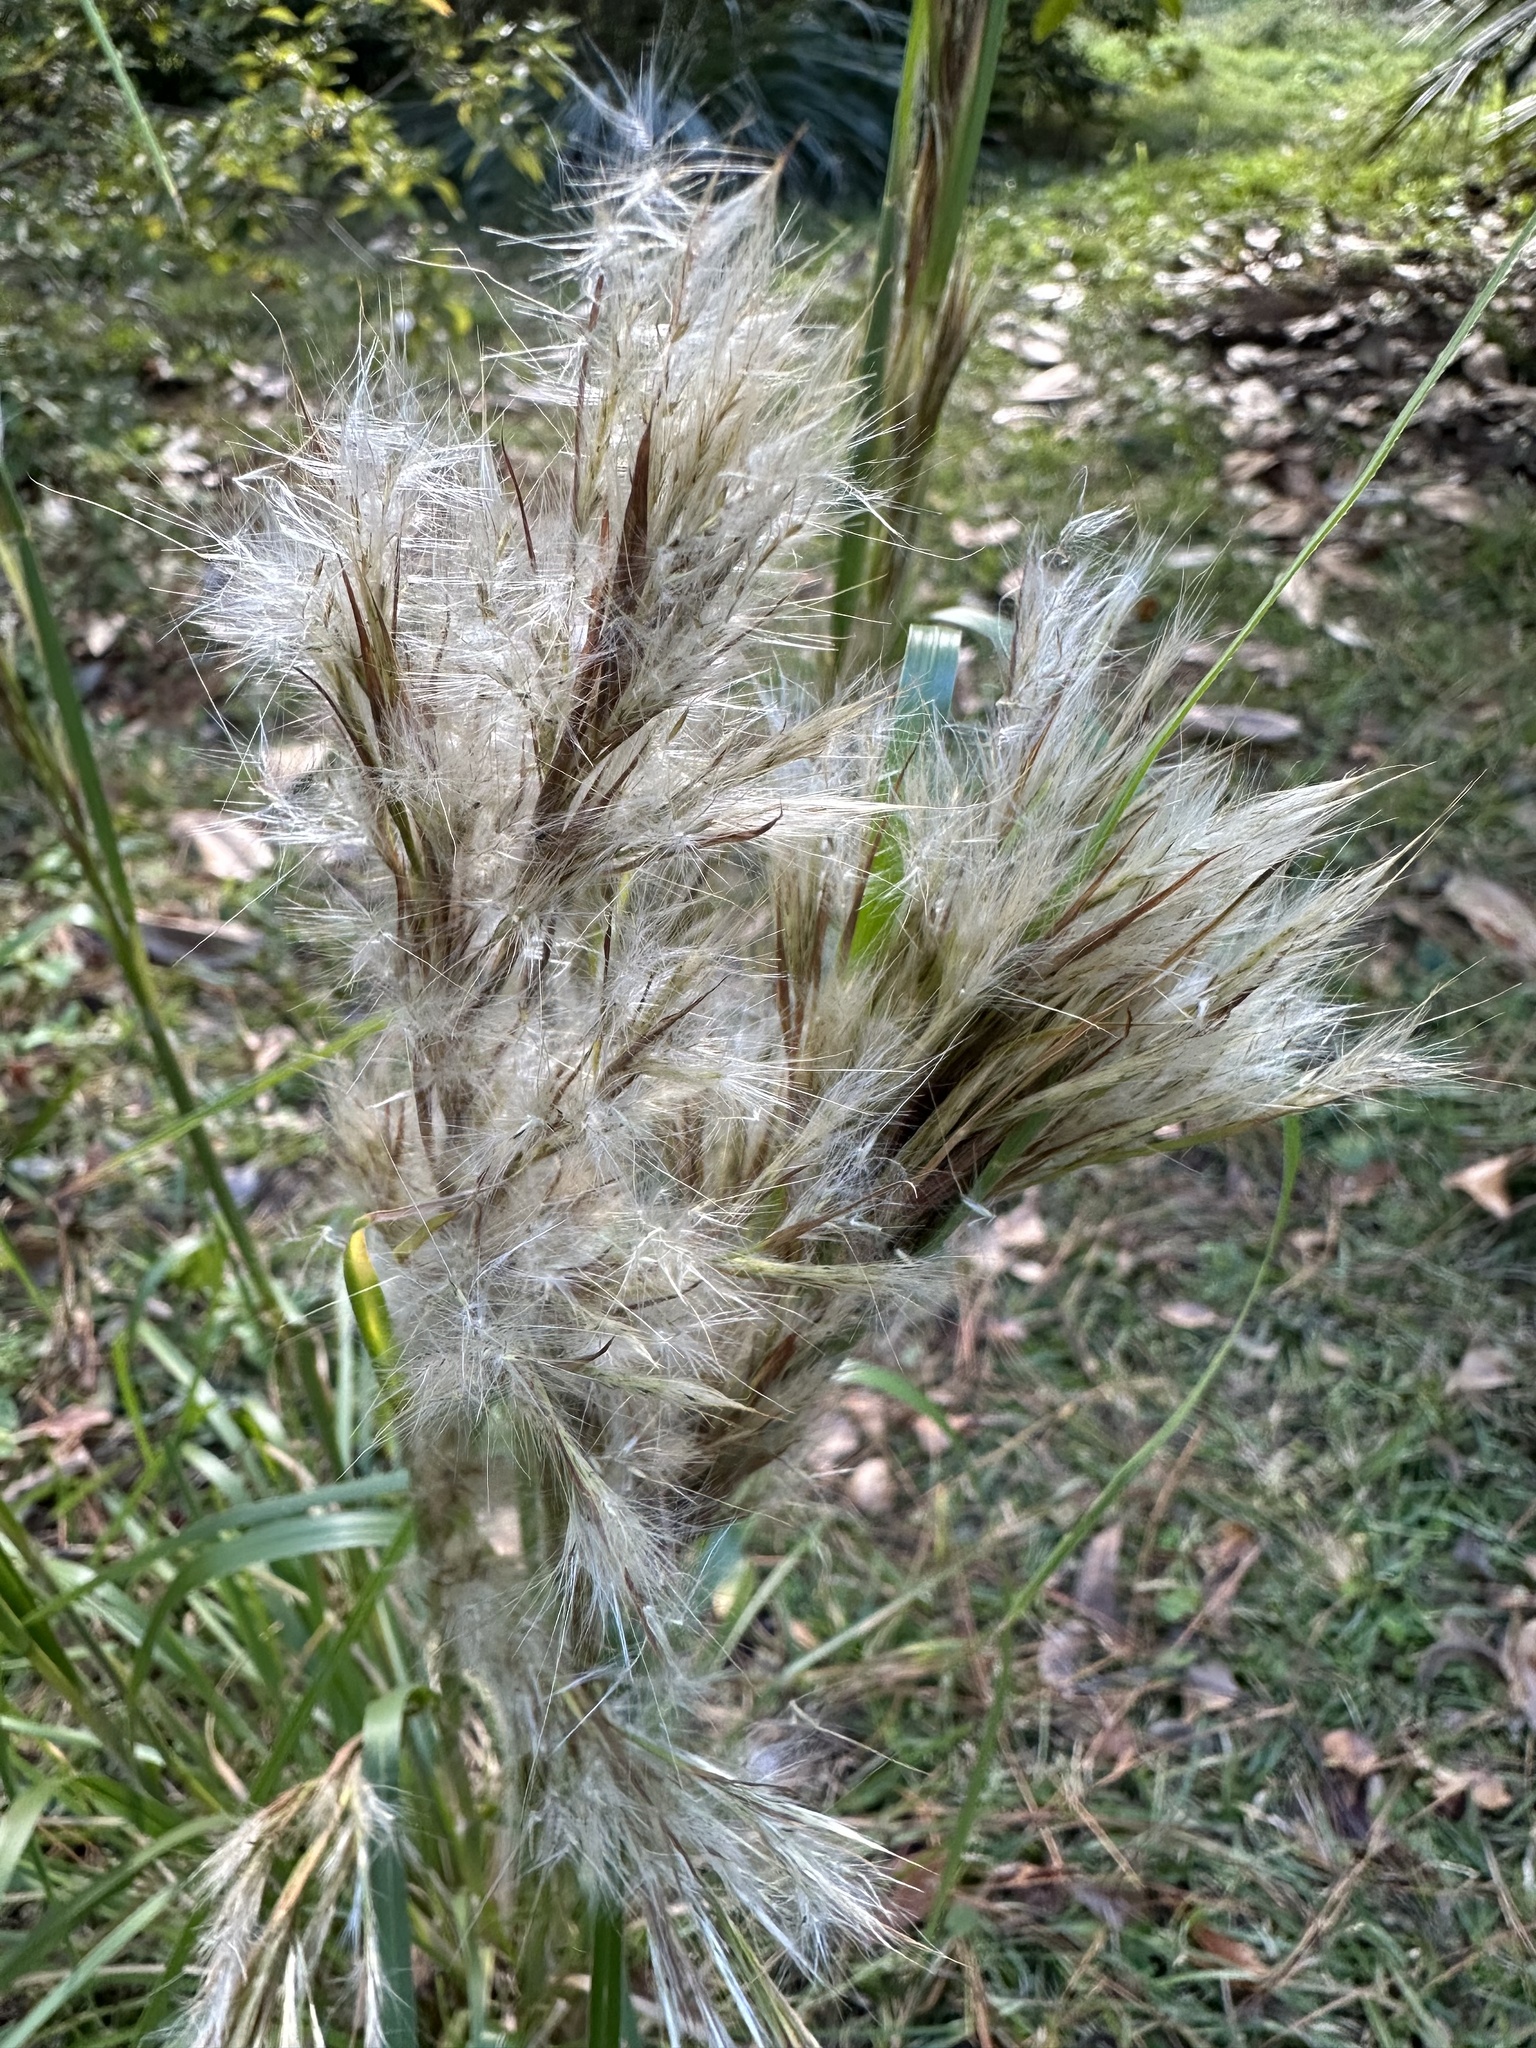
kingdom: Plantae
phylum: Tracheophyta
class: Liliopsida
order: Poales
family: Poaceae
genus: Andropogon
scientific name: Andropogon tenuispatheus
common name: Bushy bluestem
